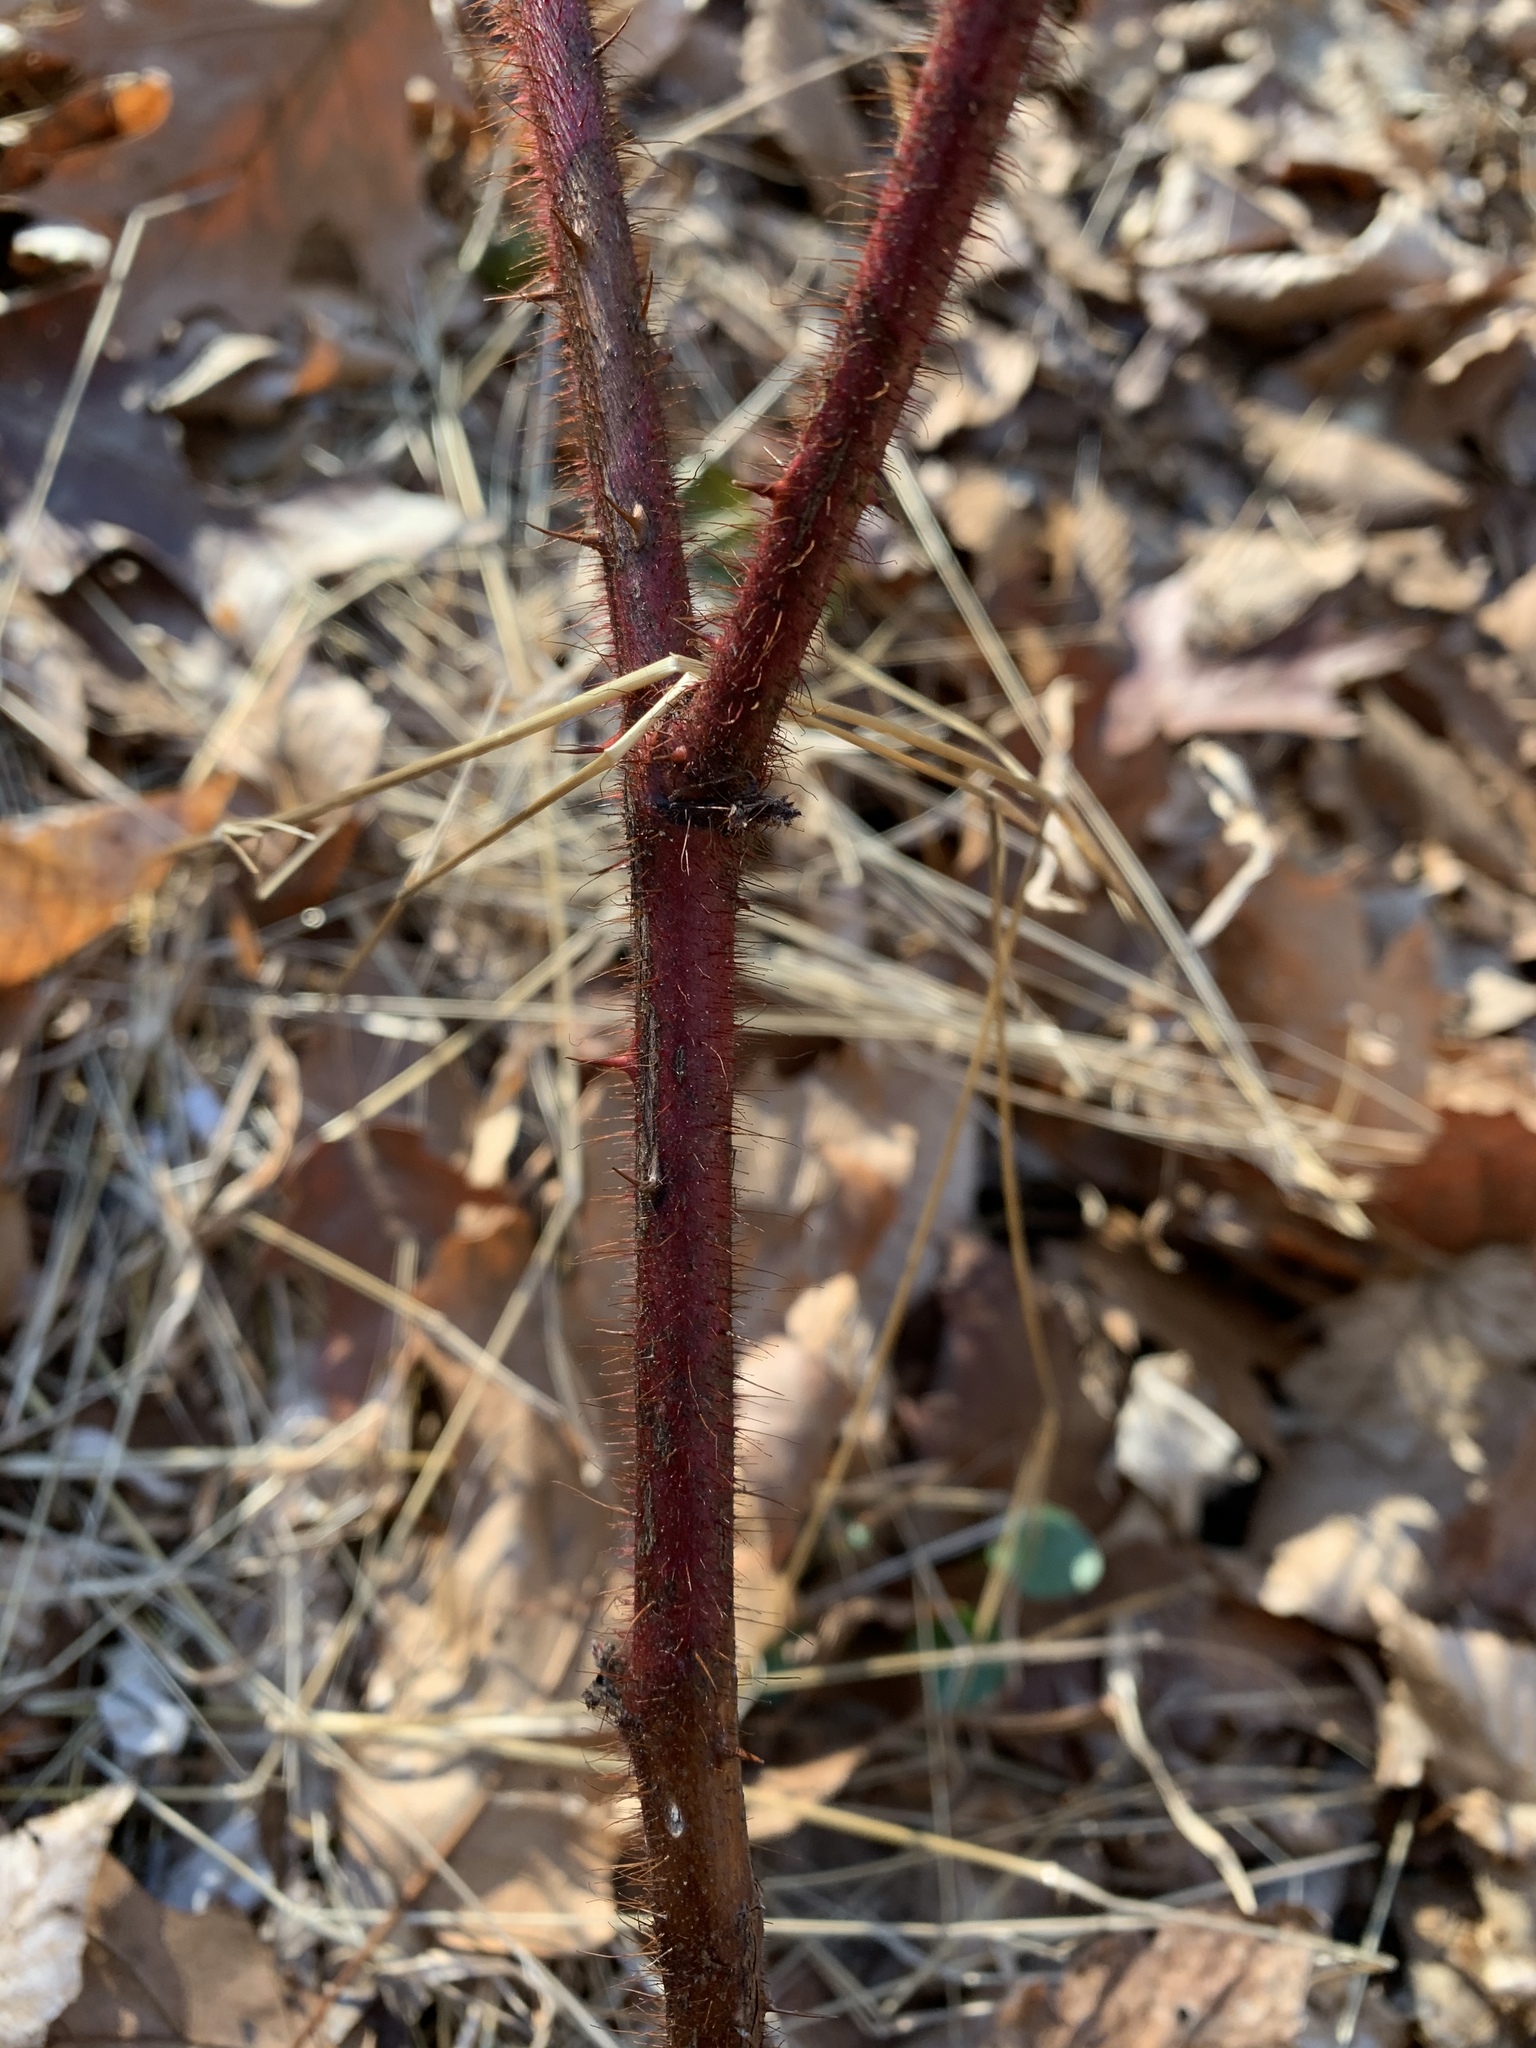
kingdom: Plantae
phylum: Tracheophyta
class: Magnoliopsida
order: Rosales
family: Rosaceae
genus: Rubus
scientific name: Rubus phoenicolasius
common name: Japanese wineberry
